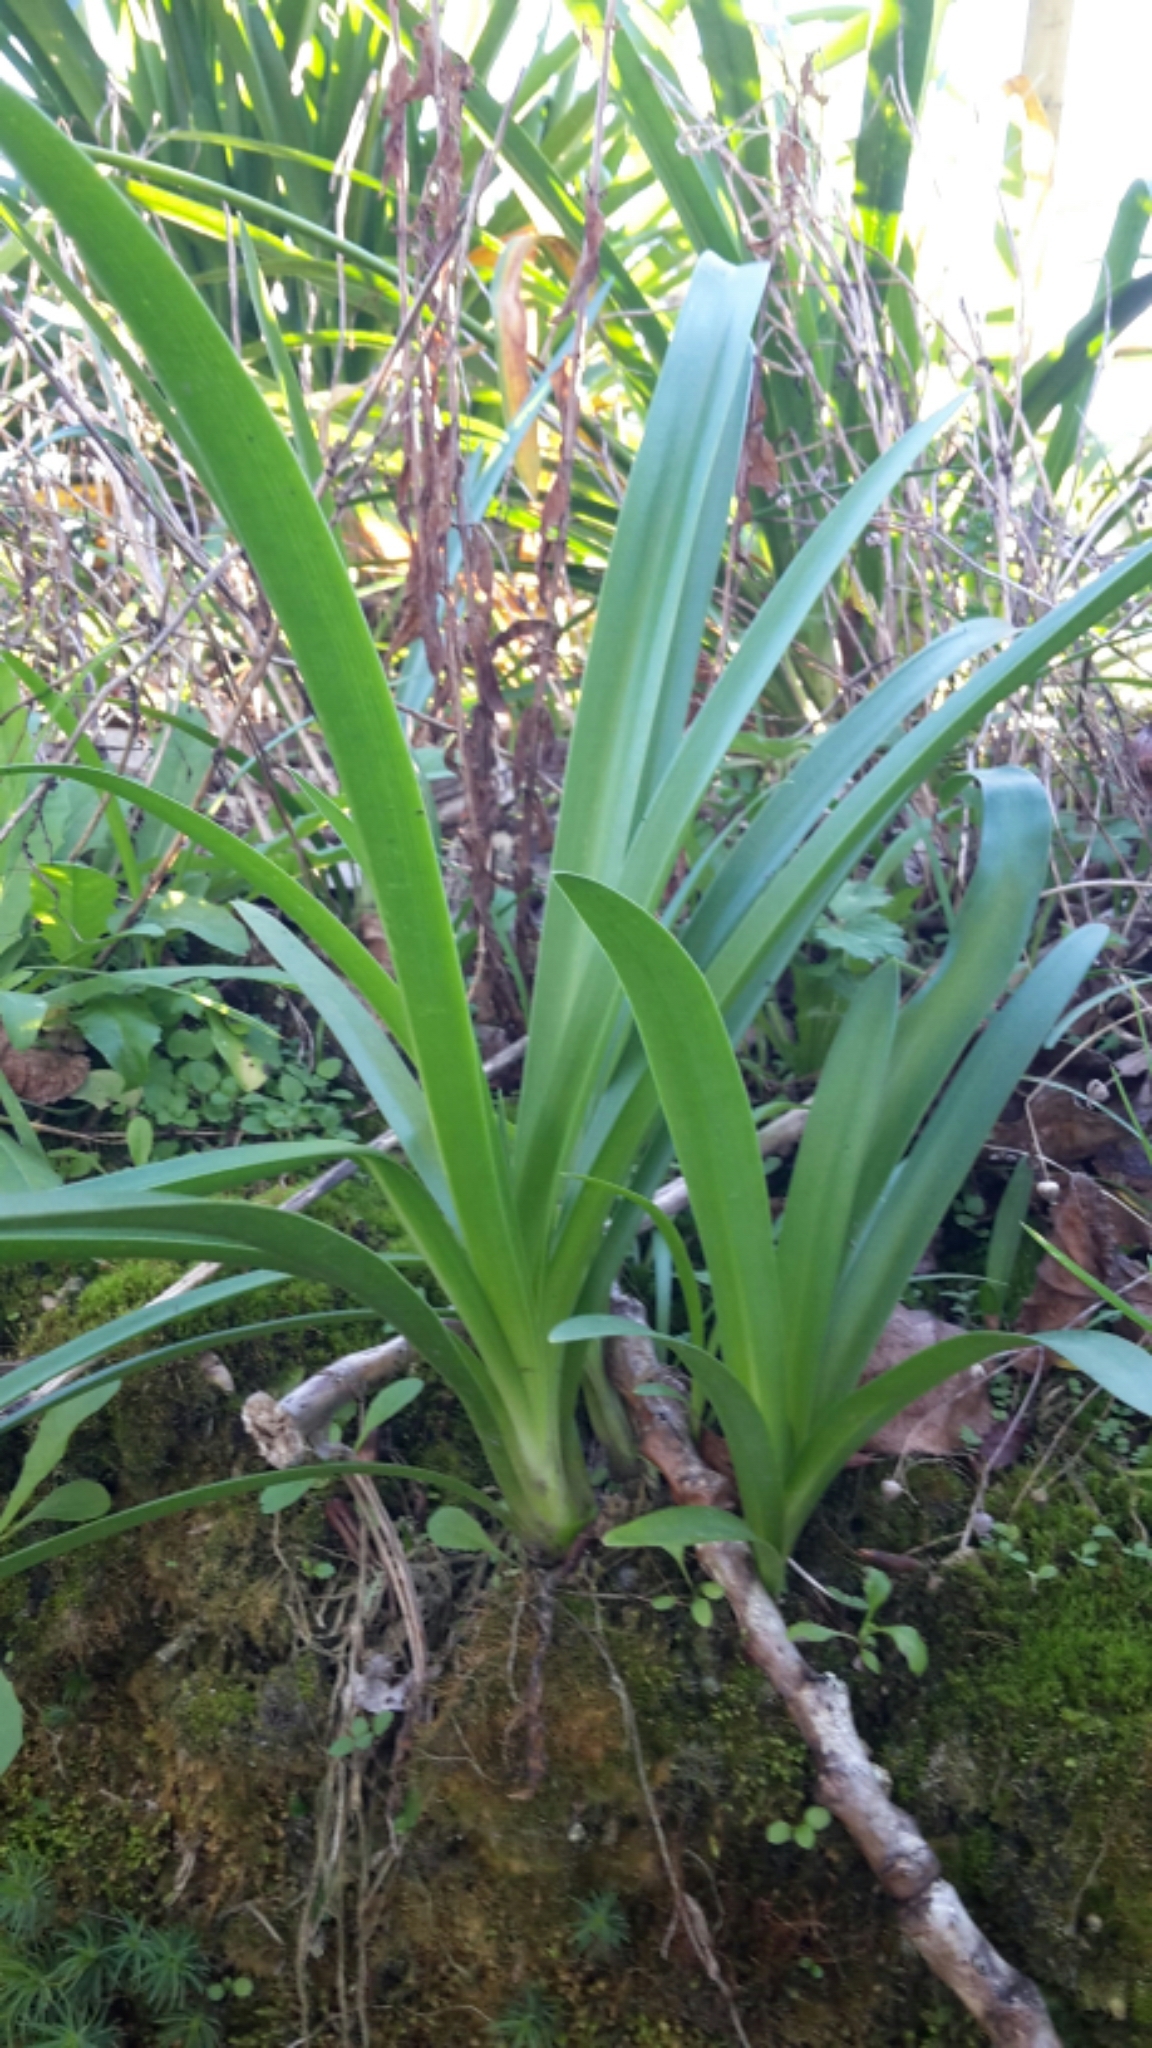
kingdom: Plantae
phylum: Tracheophyta
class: Liliopsida
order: Asparagales
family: Amaryllidaceae
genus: Agapanthus
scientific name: Agapanthus praecox
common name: African-lily
